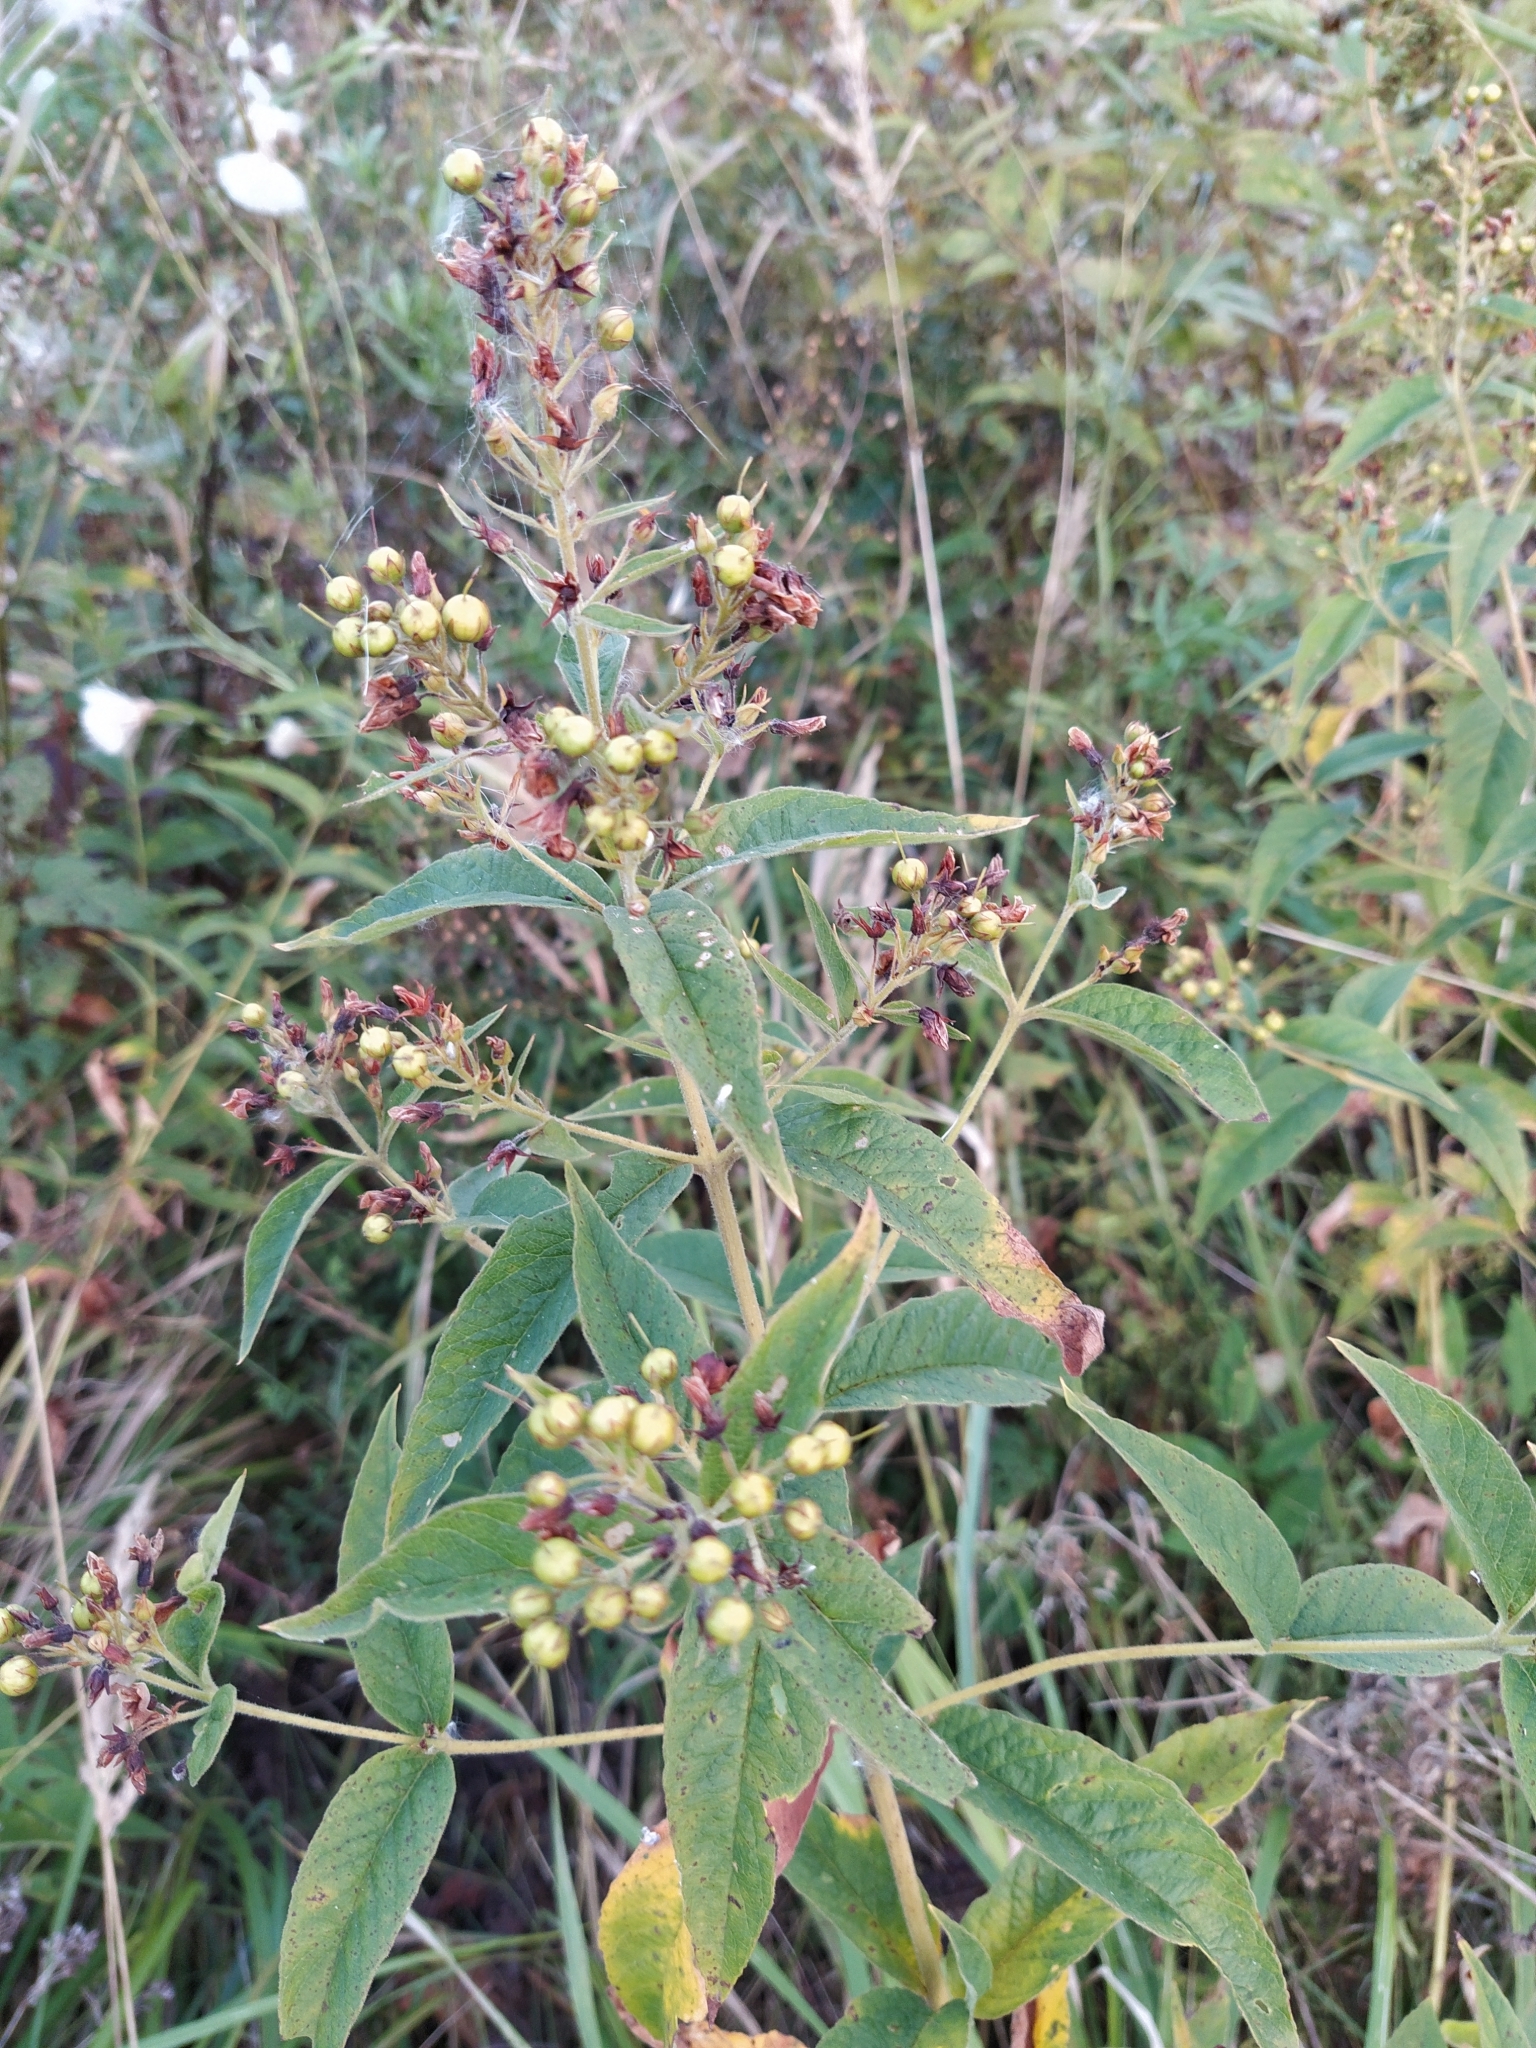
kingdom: Plantae
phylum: Tracheophyta
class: Magnoliopsida
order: Ericales
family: Primulaceae
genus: Lysimachia
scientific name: Lysimachia vulgaris
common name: Yellow loosestrife
